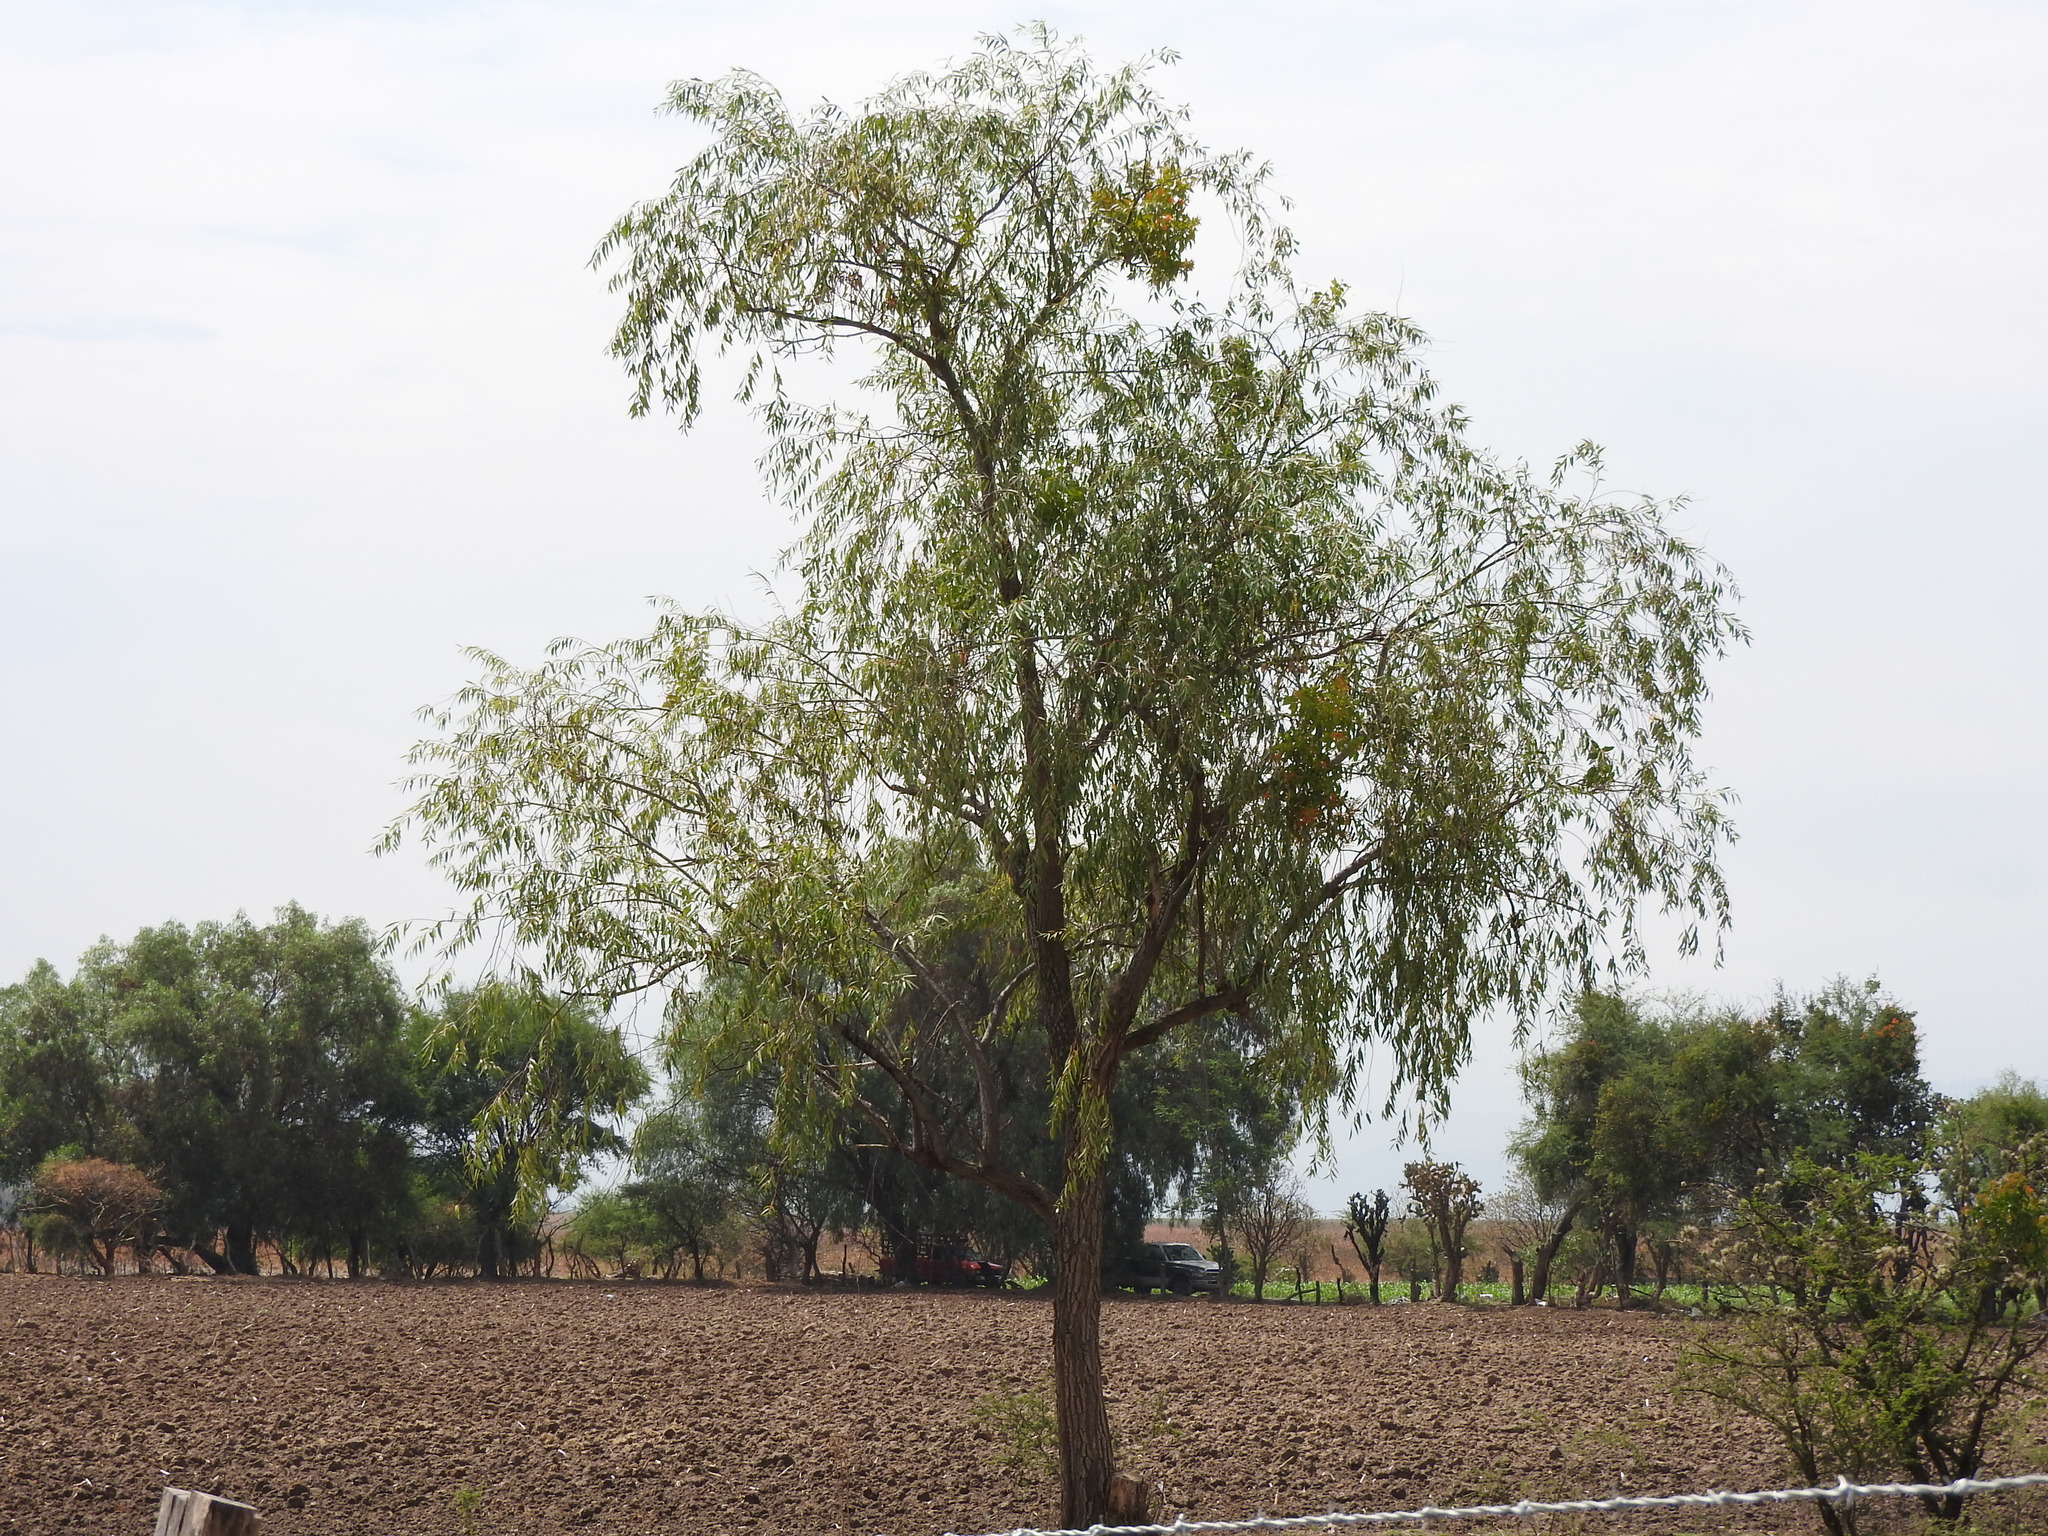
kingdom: Plantae
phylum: Tracheophyta
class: Magnoliopsida
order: Malpighiales
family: Salicaceae
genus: Salix
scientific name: Salix bonplandiana
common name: Bonpland’s willow
